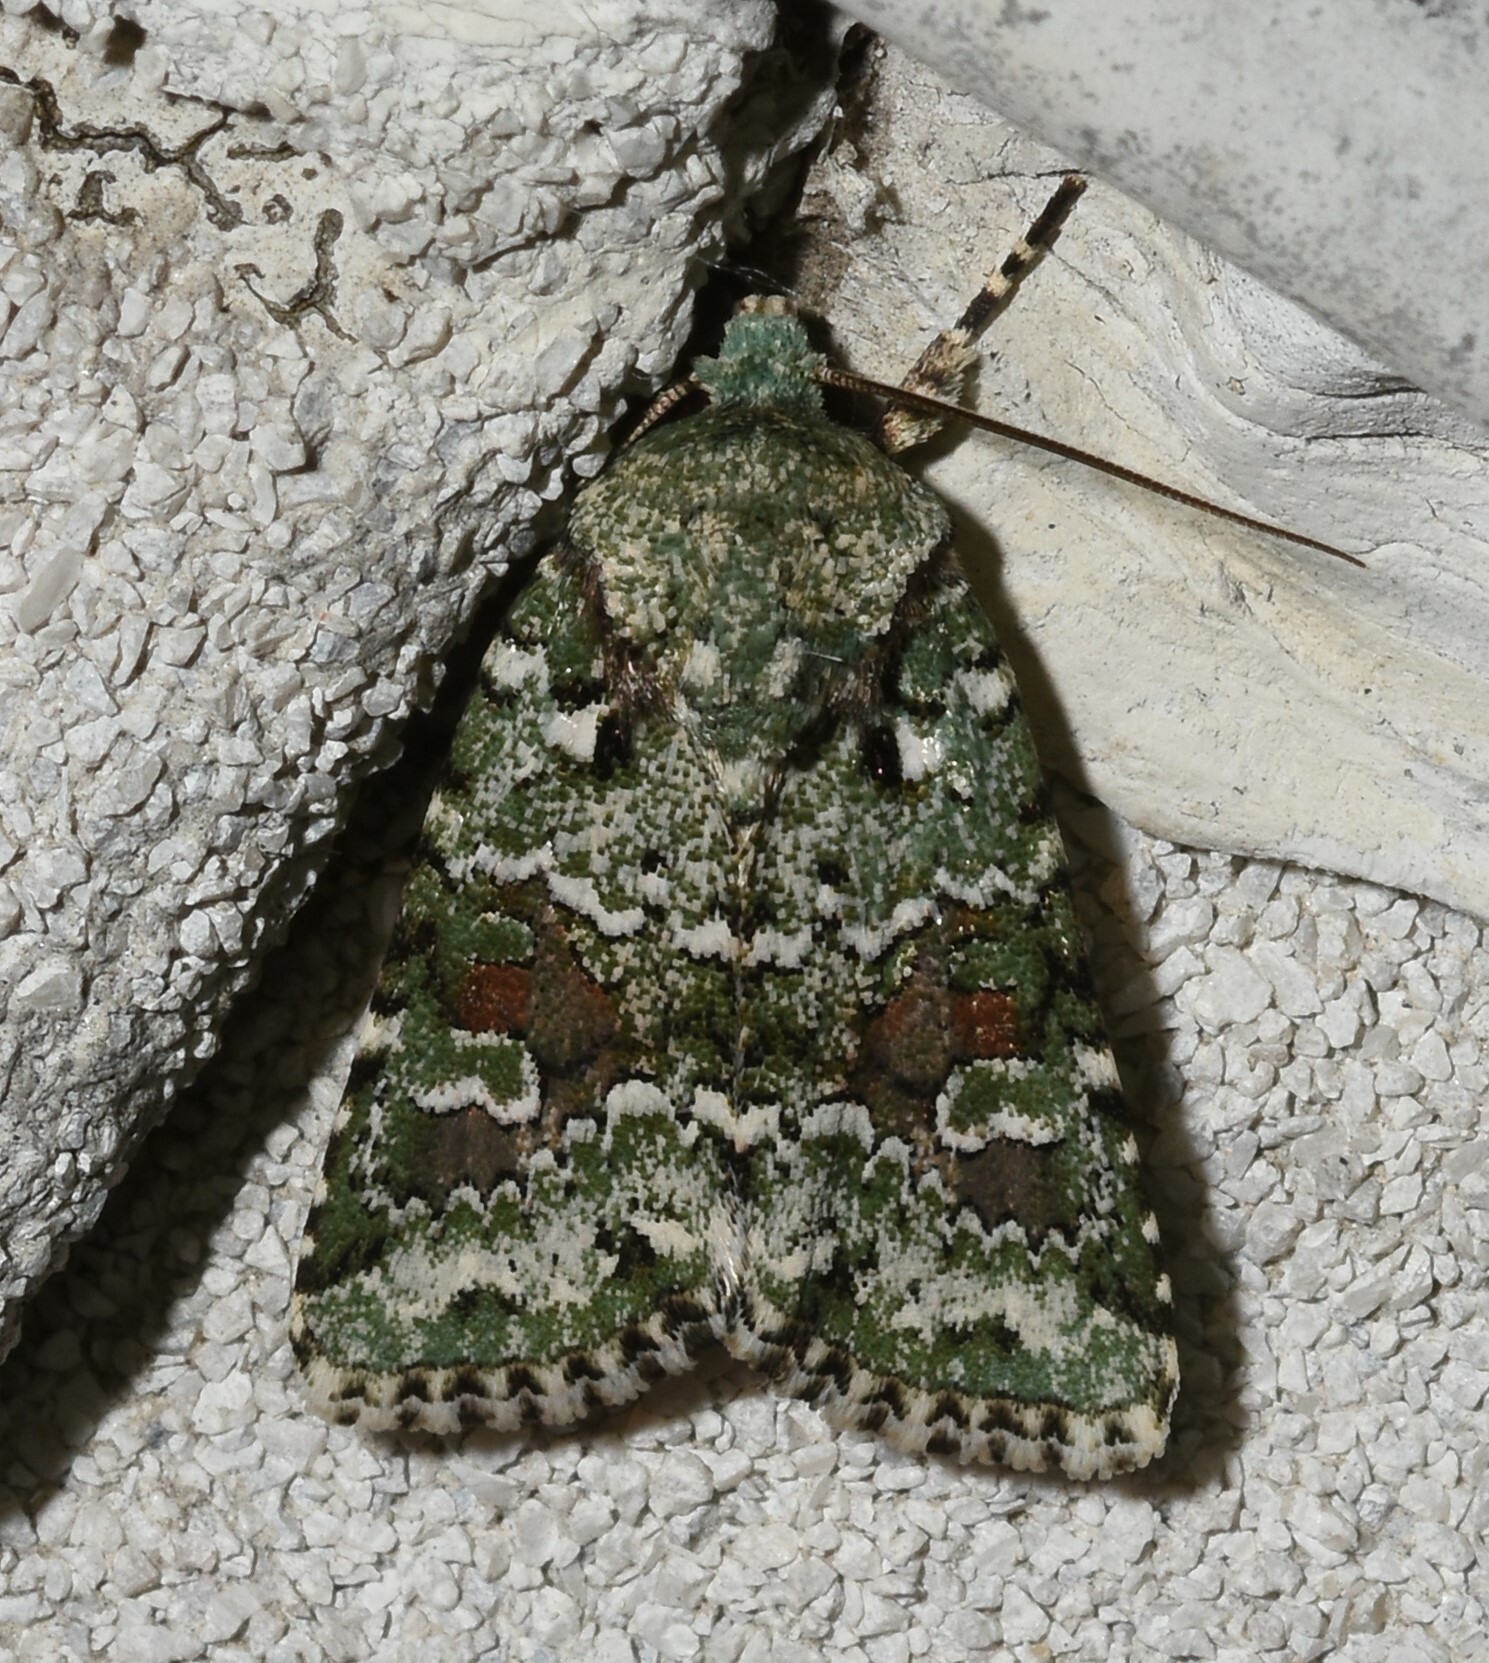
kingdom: Animalia
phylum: Arthropoda
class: Insecta
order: Lepidoptera
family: Noctuidae
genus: Lacinipolia
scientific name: Lacinipolia laudabilis
